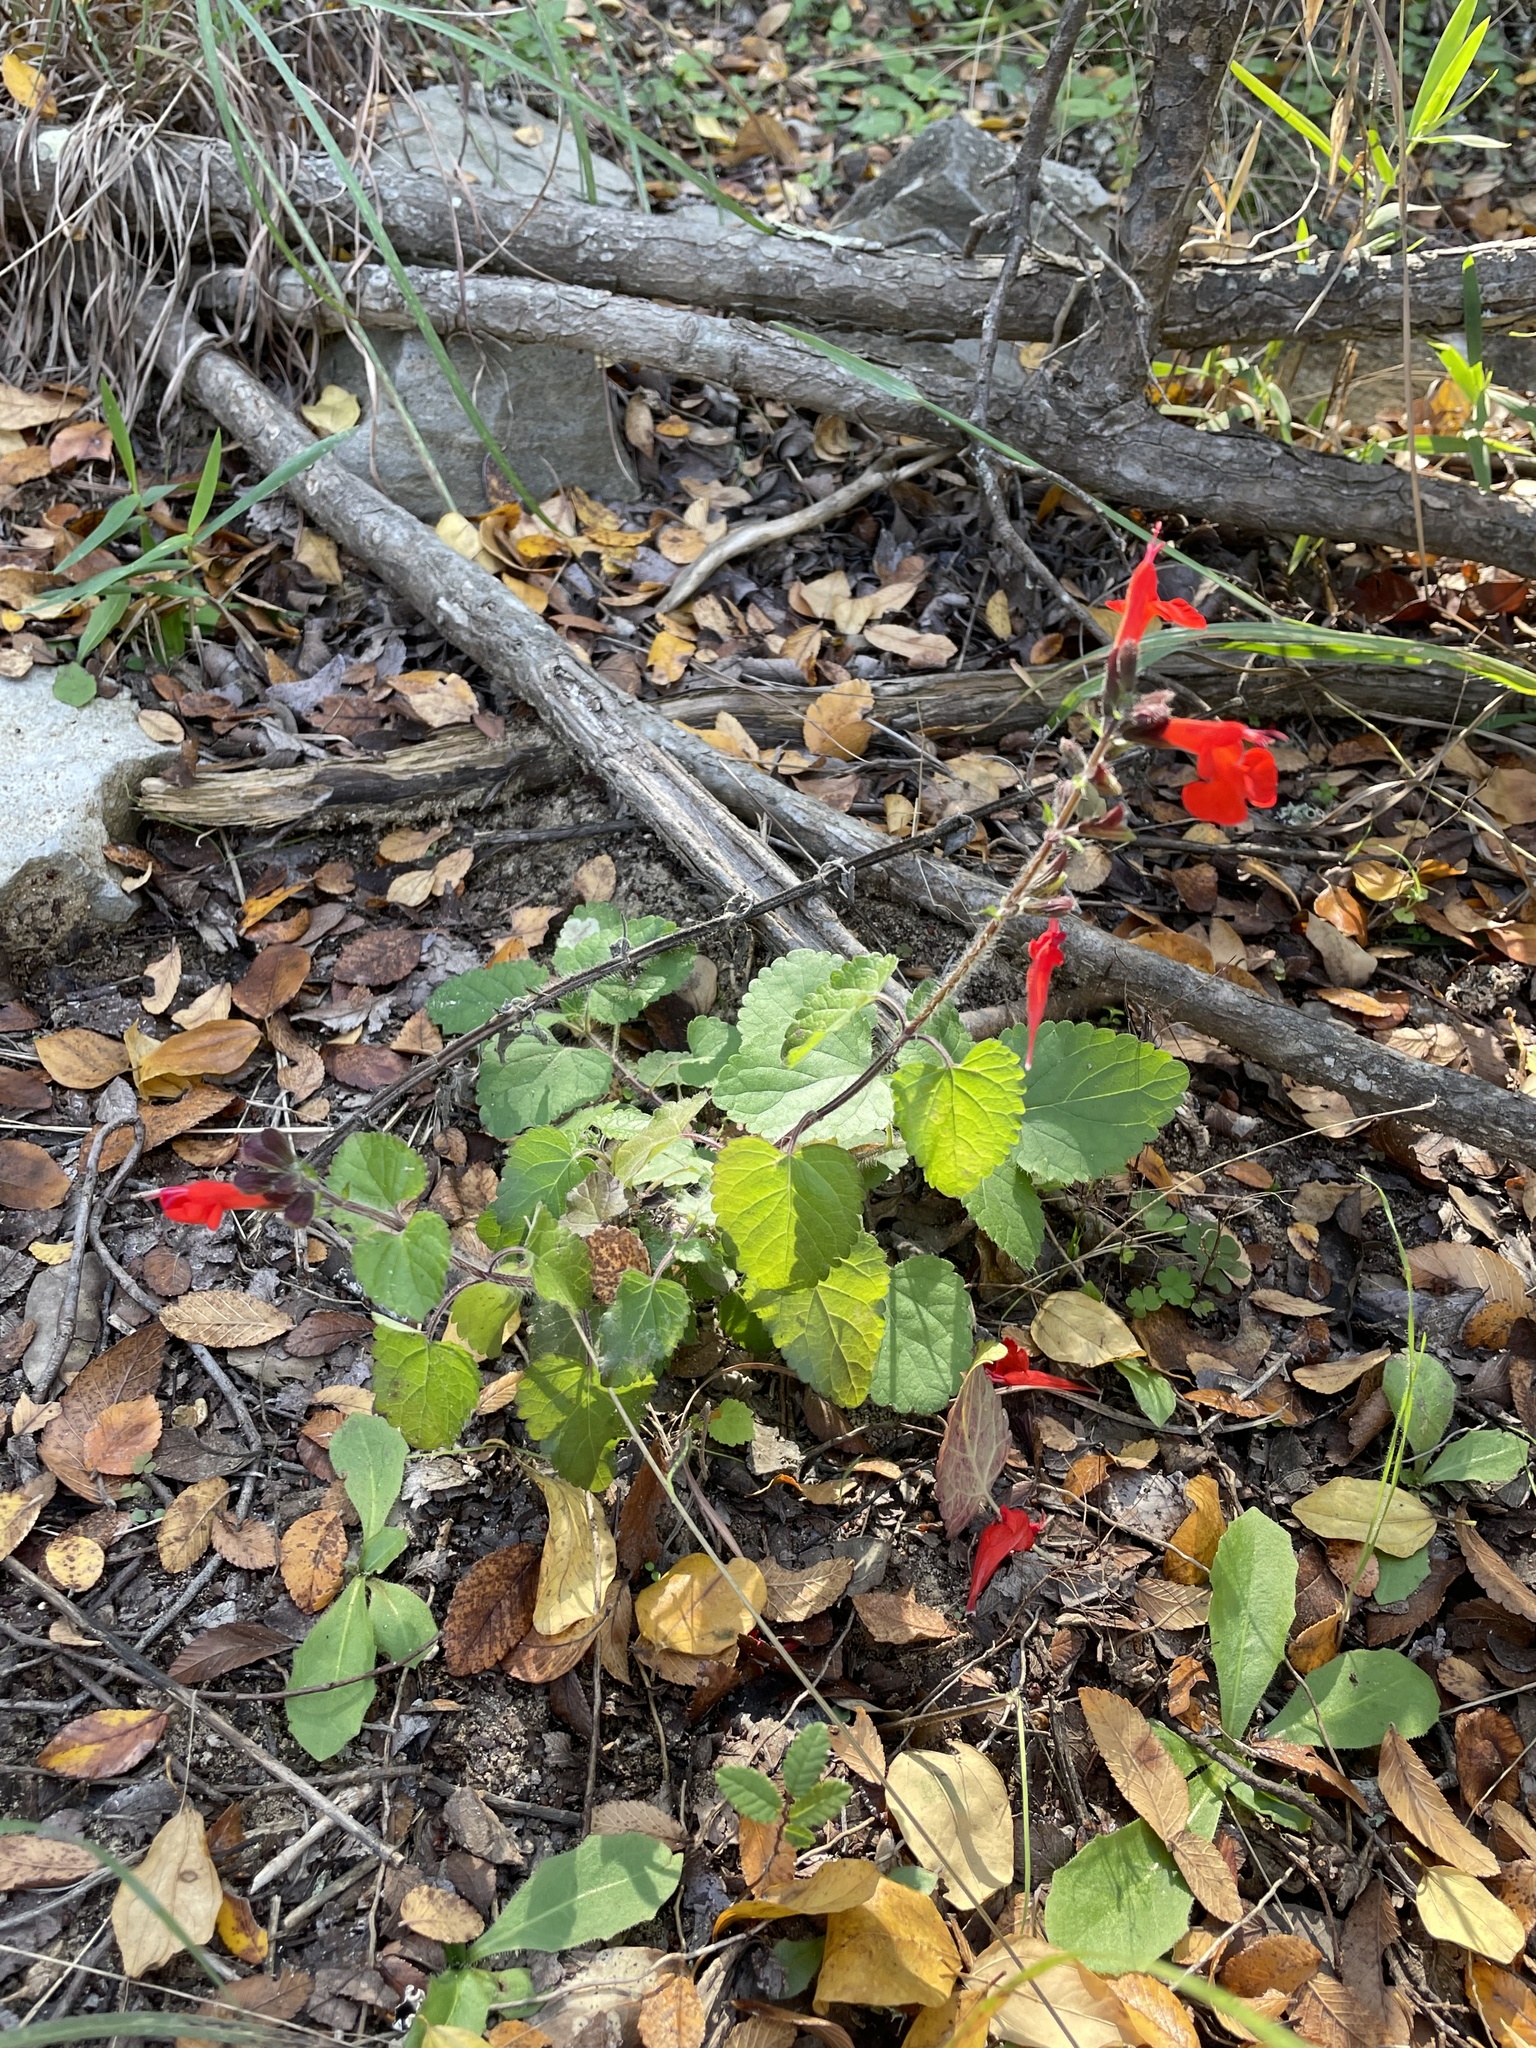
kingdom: Plantae
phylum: Tracheophyta
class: Magnoliopsida
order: Lamiales
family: Lamiaceae
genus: Salvia
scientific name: Salvia coccinea
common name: Blood sage
